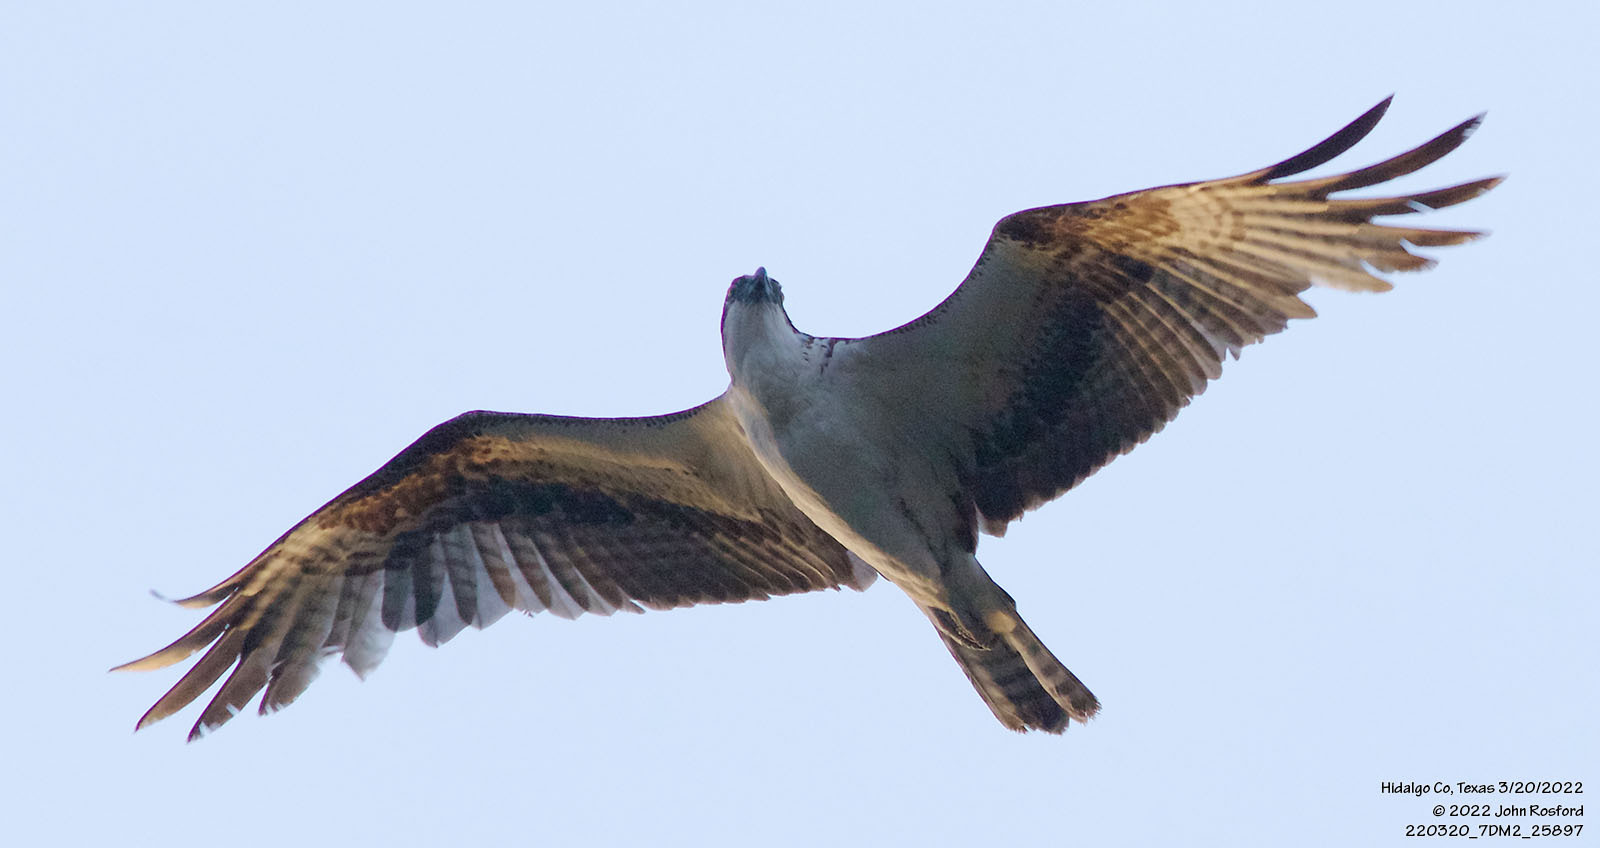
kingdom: Animalia
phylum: Chordata
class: Aves
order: Accipitriformes
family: Pandionidae
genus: Pandion
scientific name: Pandion haliaetus
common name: Osprey
